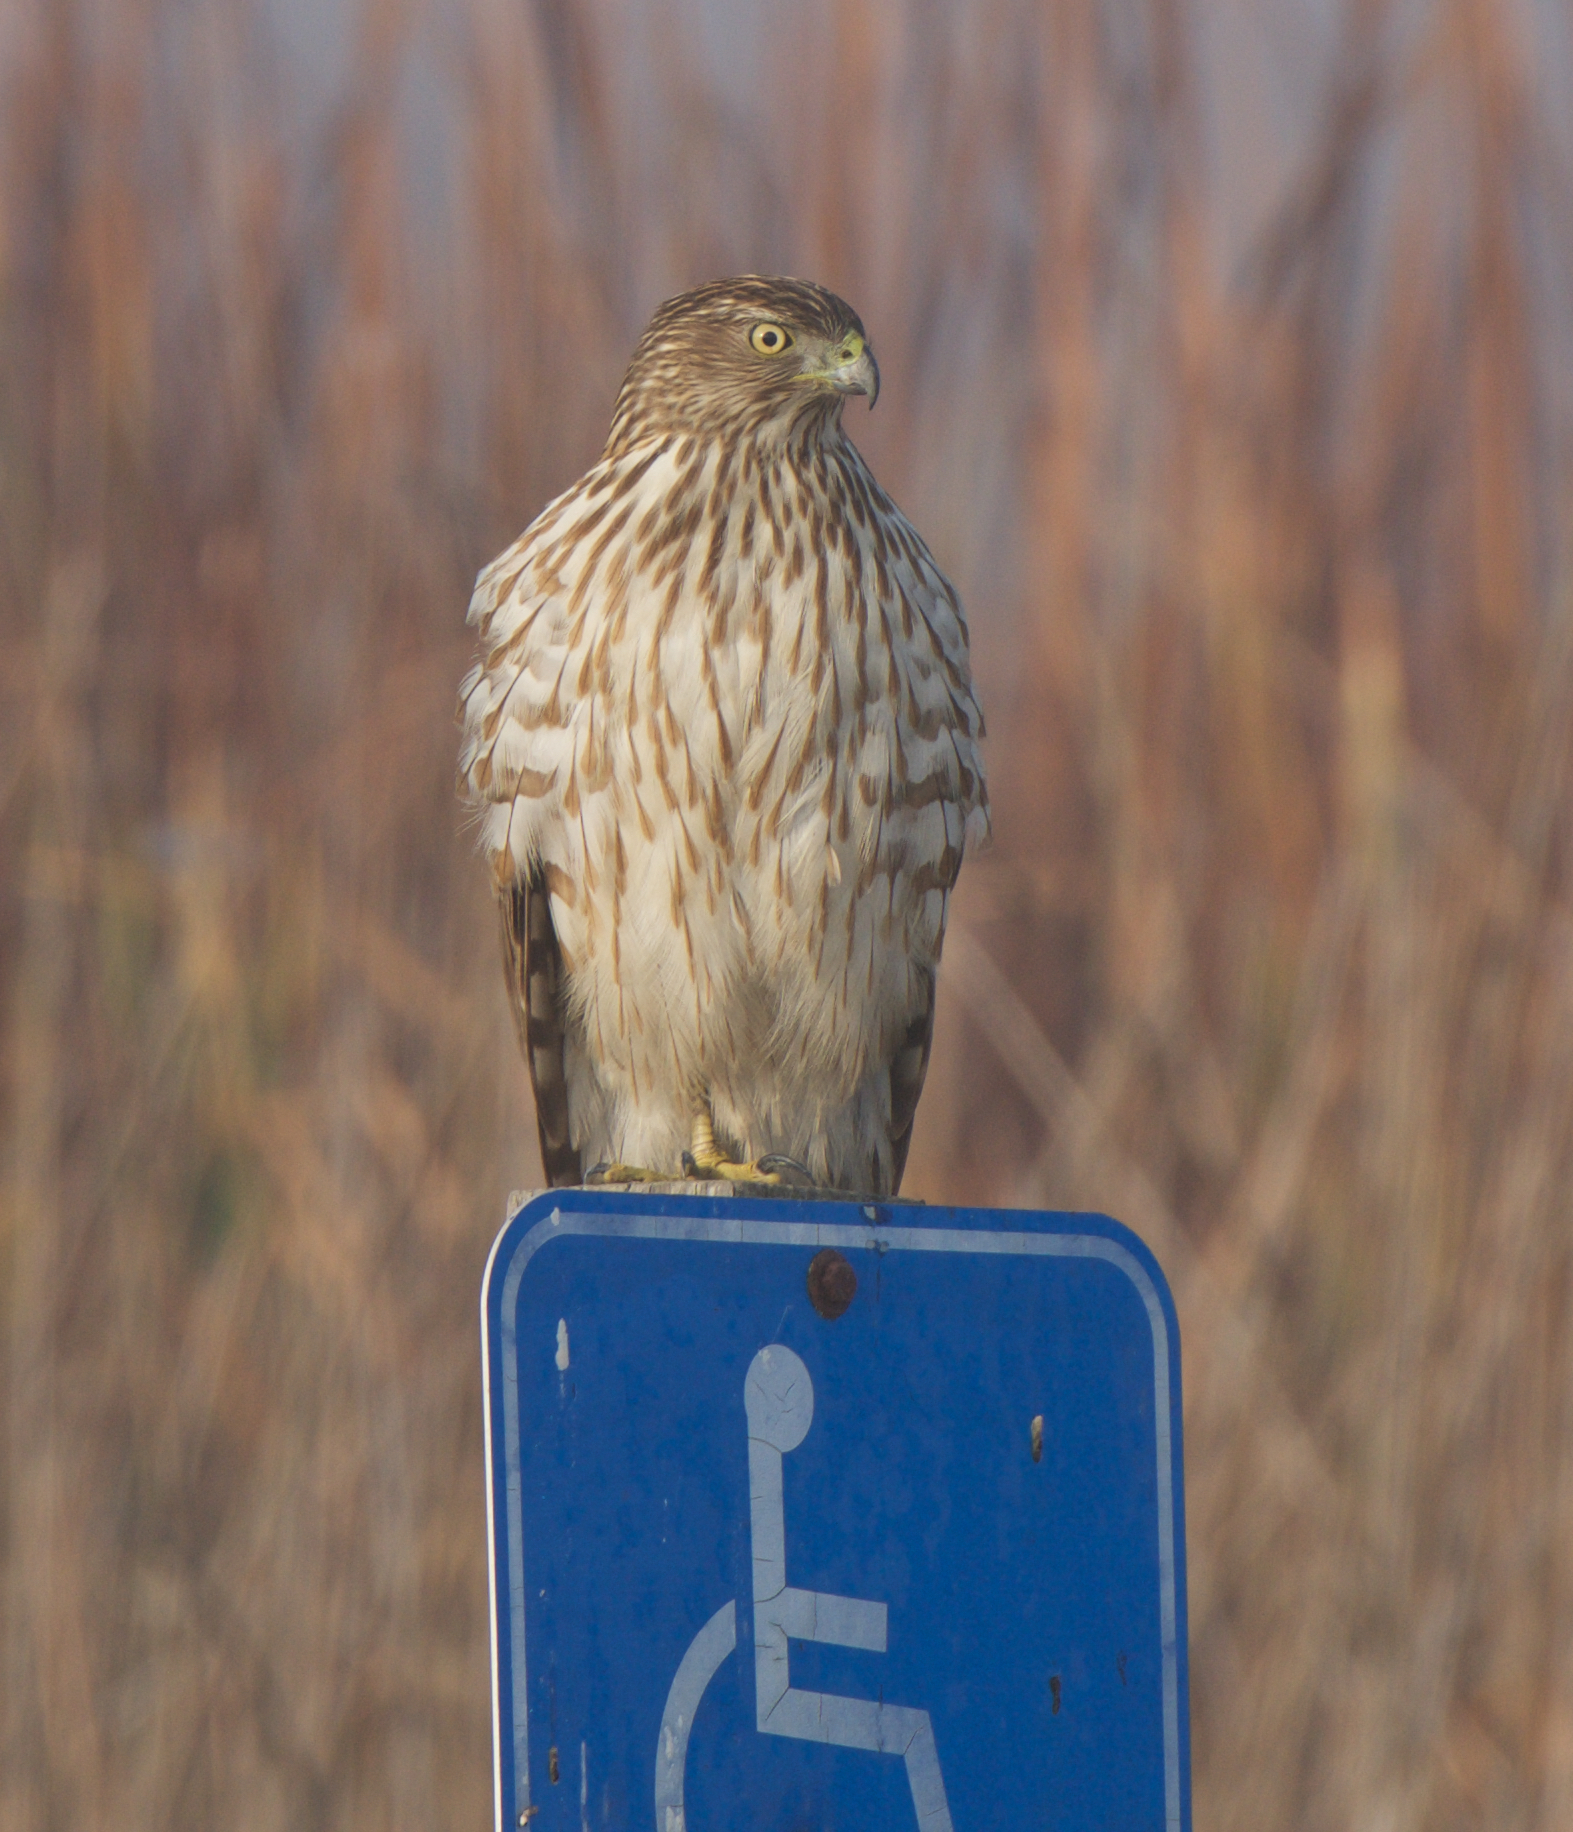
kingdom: Animalia
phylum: Chordata
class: Aves
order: Accipitriformes
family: Accipitridae
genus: Accipiter
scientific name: Accipiter cooperii
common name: Cooper's hawk
